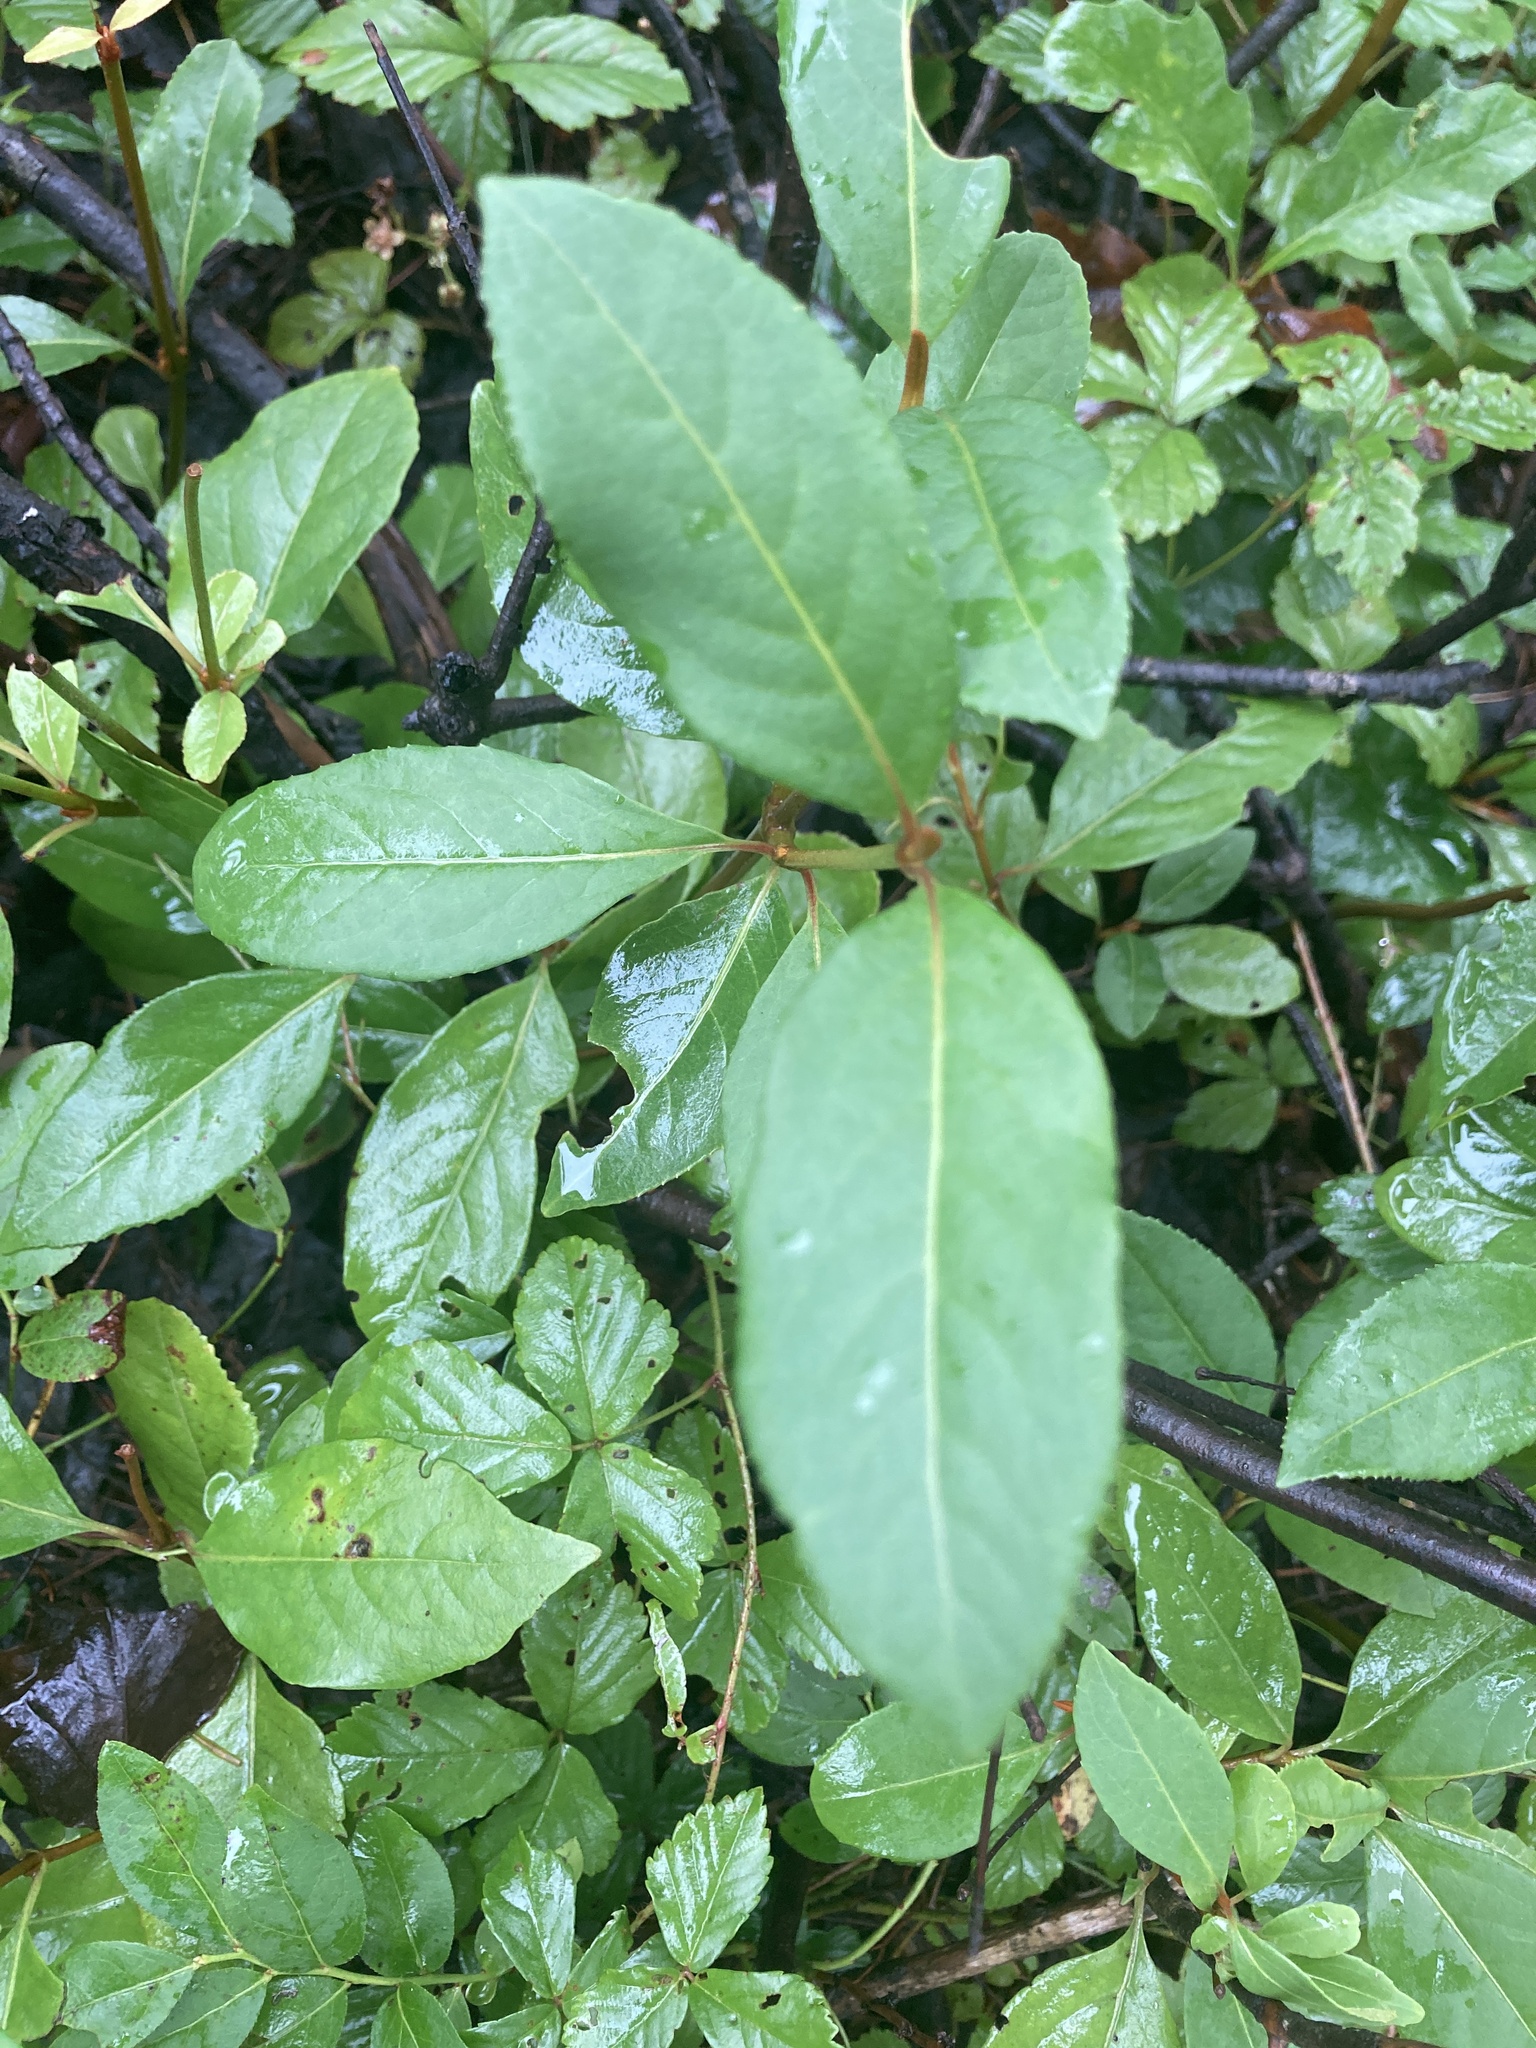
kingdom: Plantae
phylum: Tracheophyta
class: Magnoliopsida
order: Dipsacales
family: Viburnaceae
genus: Viburnum
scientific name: Viburnum cassinoides
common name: Swamp haw
